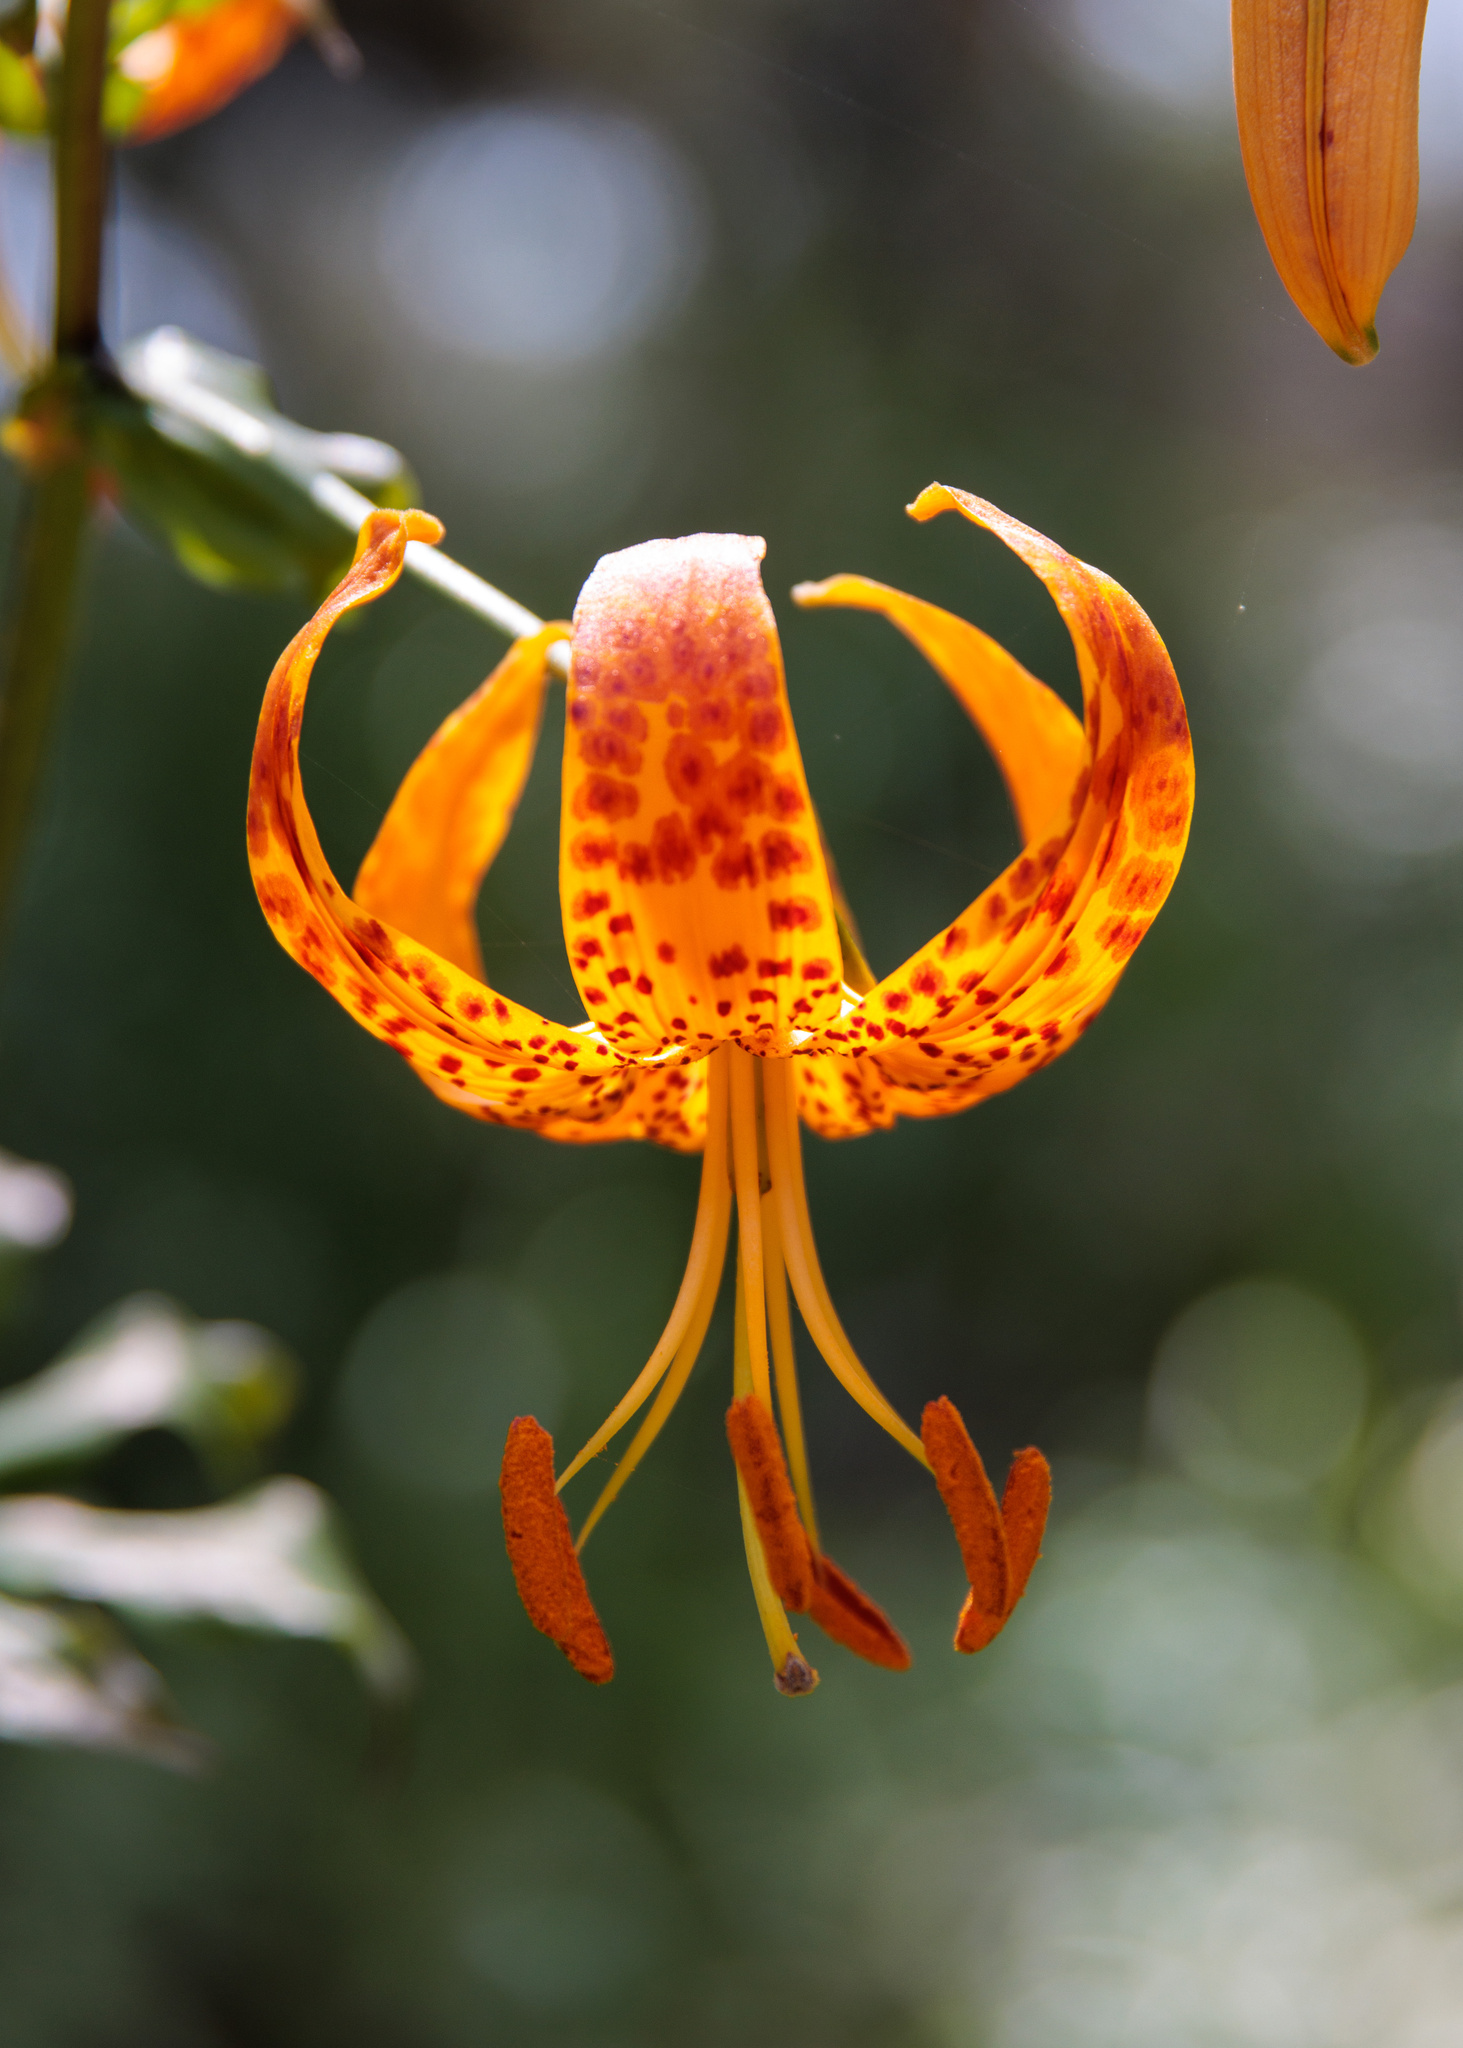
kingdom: Plantae
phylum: Tracheophyta
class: Liliopsida
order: Liliales
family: Liliaceae
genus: Lilium
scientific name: Lilium humboldtii
